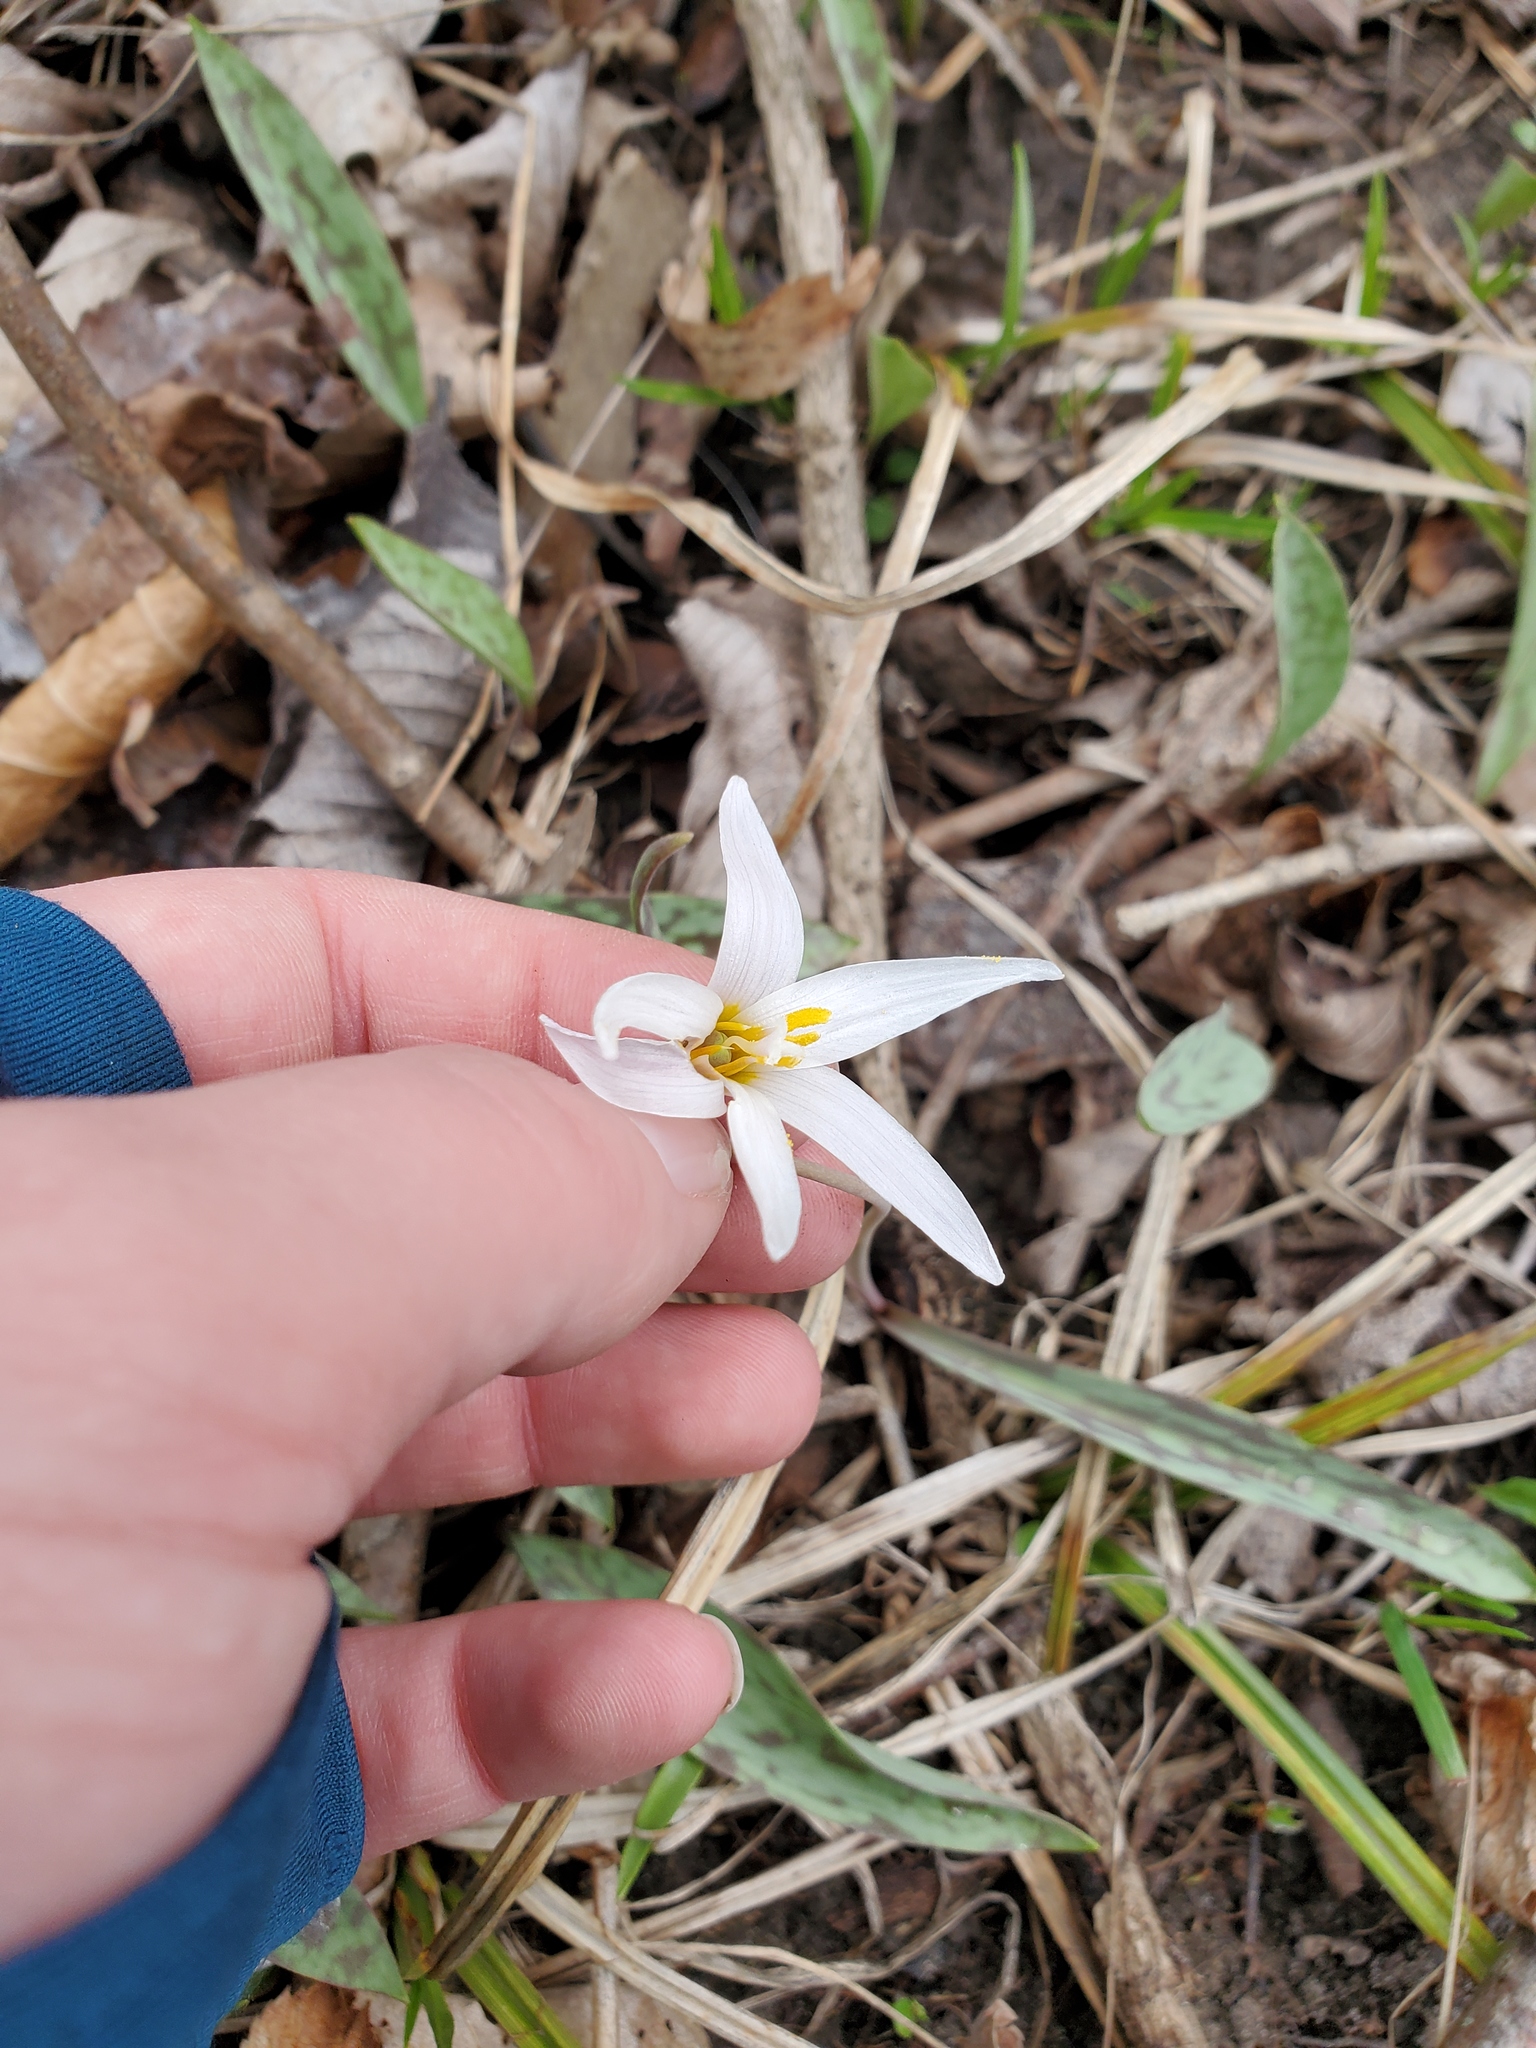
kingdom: Plantae
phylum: Tracheophyta
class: Liliopsida
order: Liliales
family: Liliaceae
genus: Erythronium
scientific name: Erythronium albidum
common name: White trout-lily
